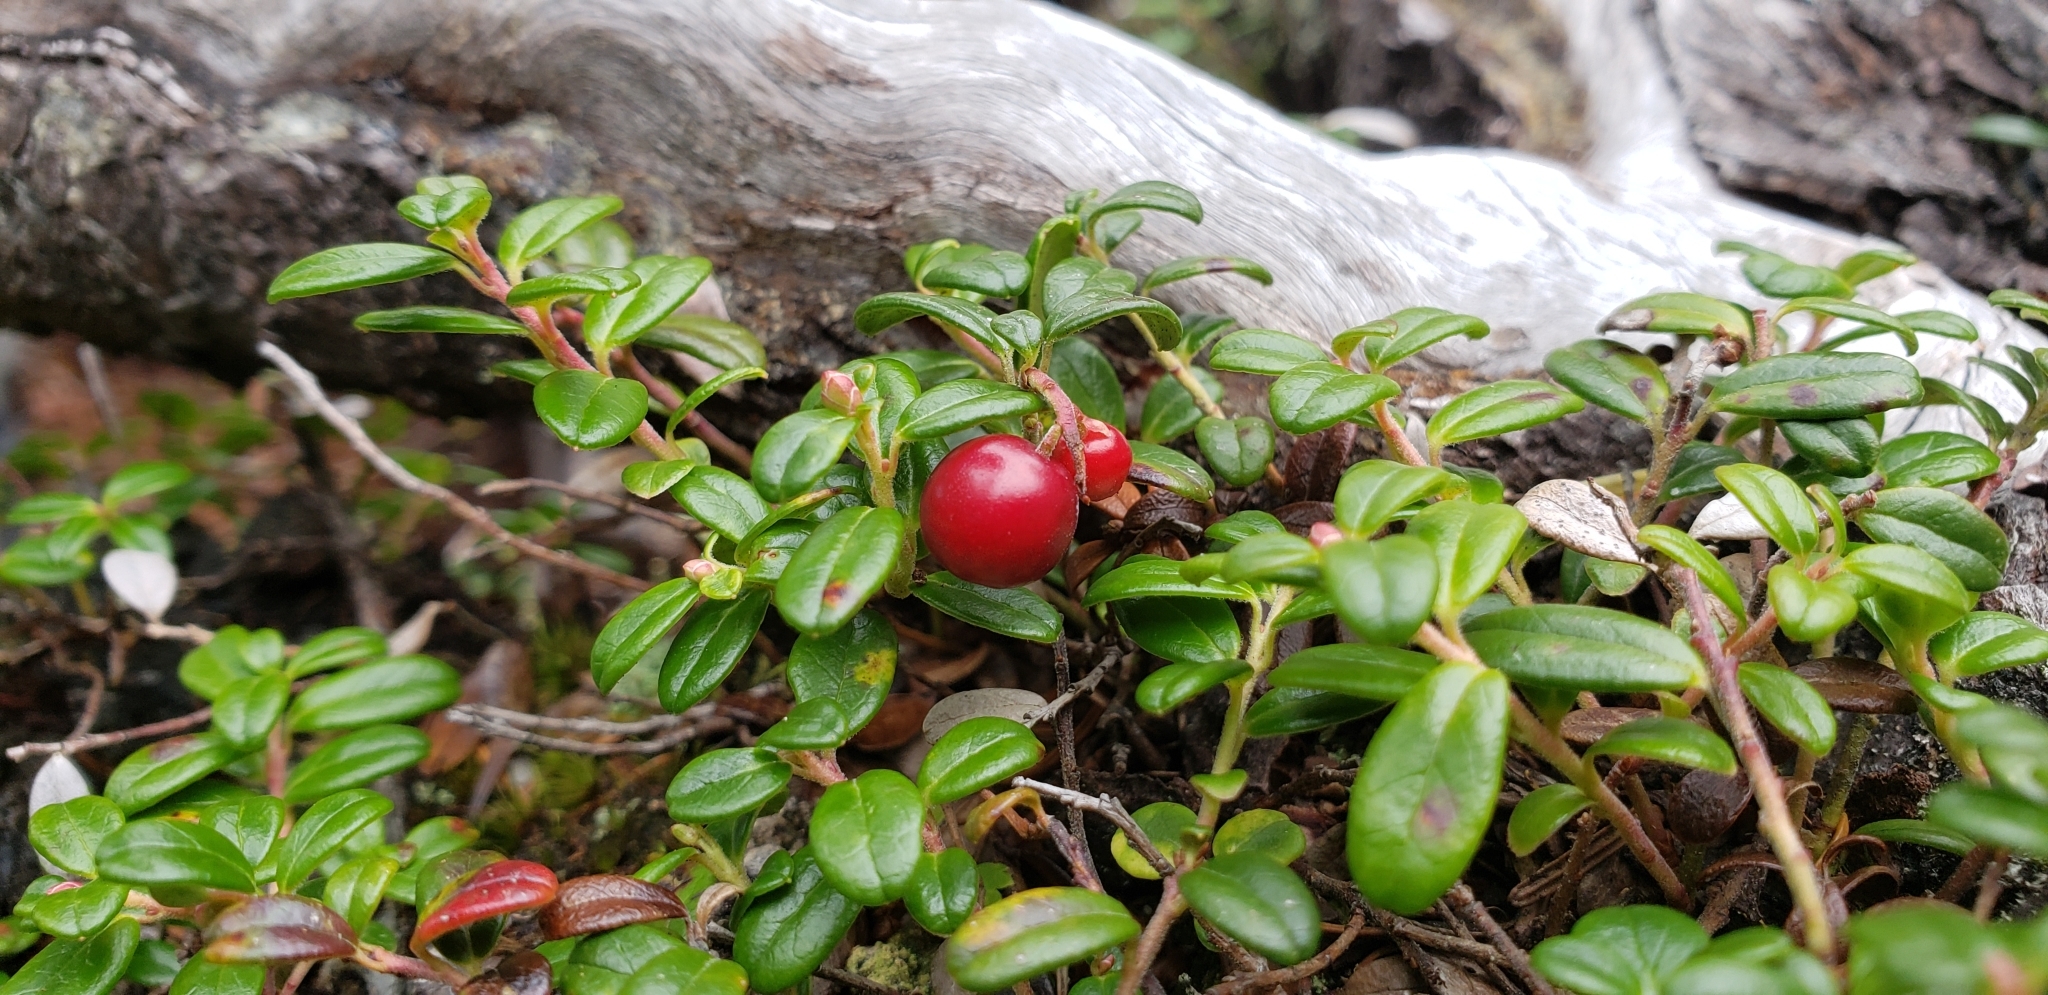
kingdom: Plantae
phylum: Tracheophyta
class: Magnoliopsida
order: Ericales
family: Ericaceae
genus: Vaccinium
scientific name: Vaccinium vitis-idaea
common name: Cowberry
